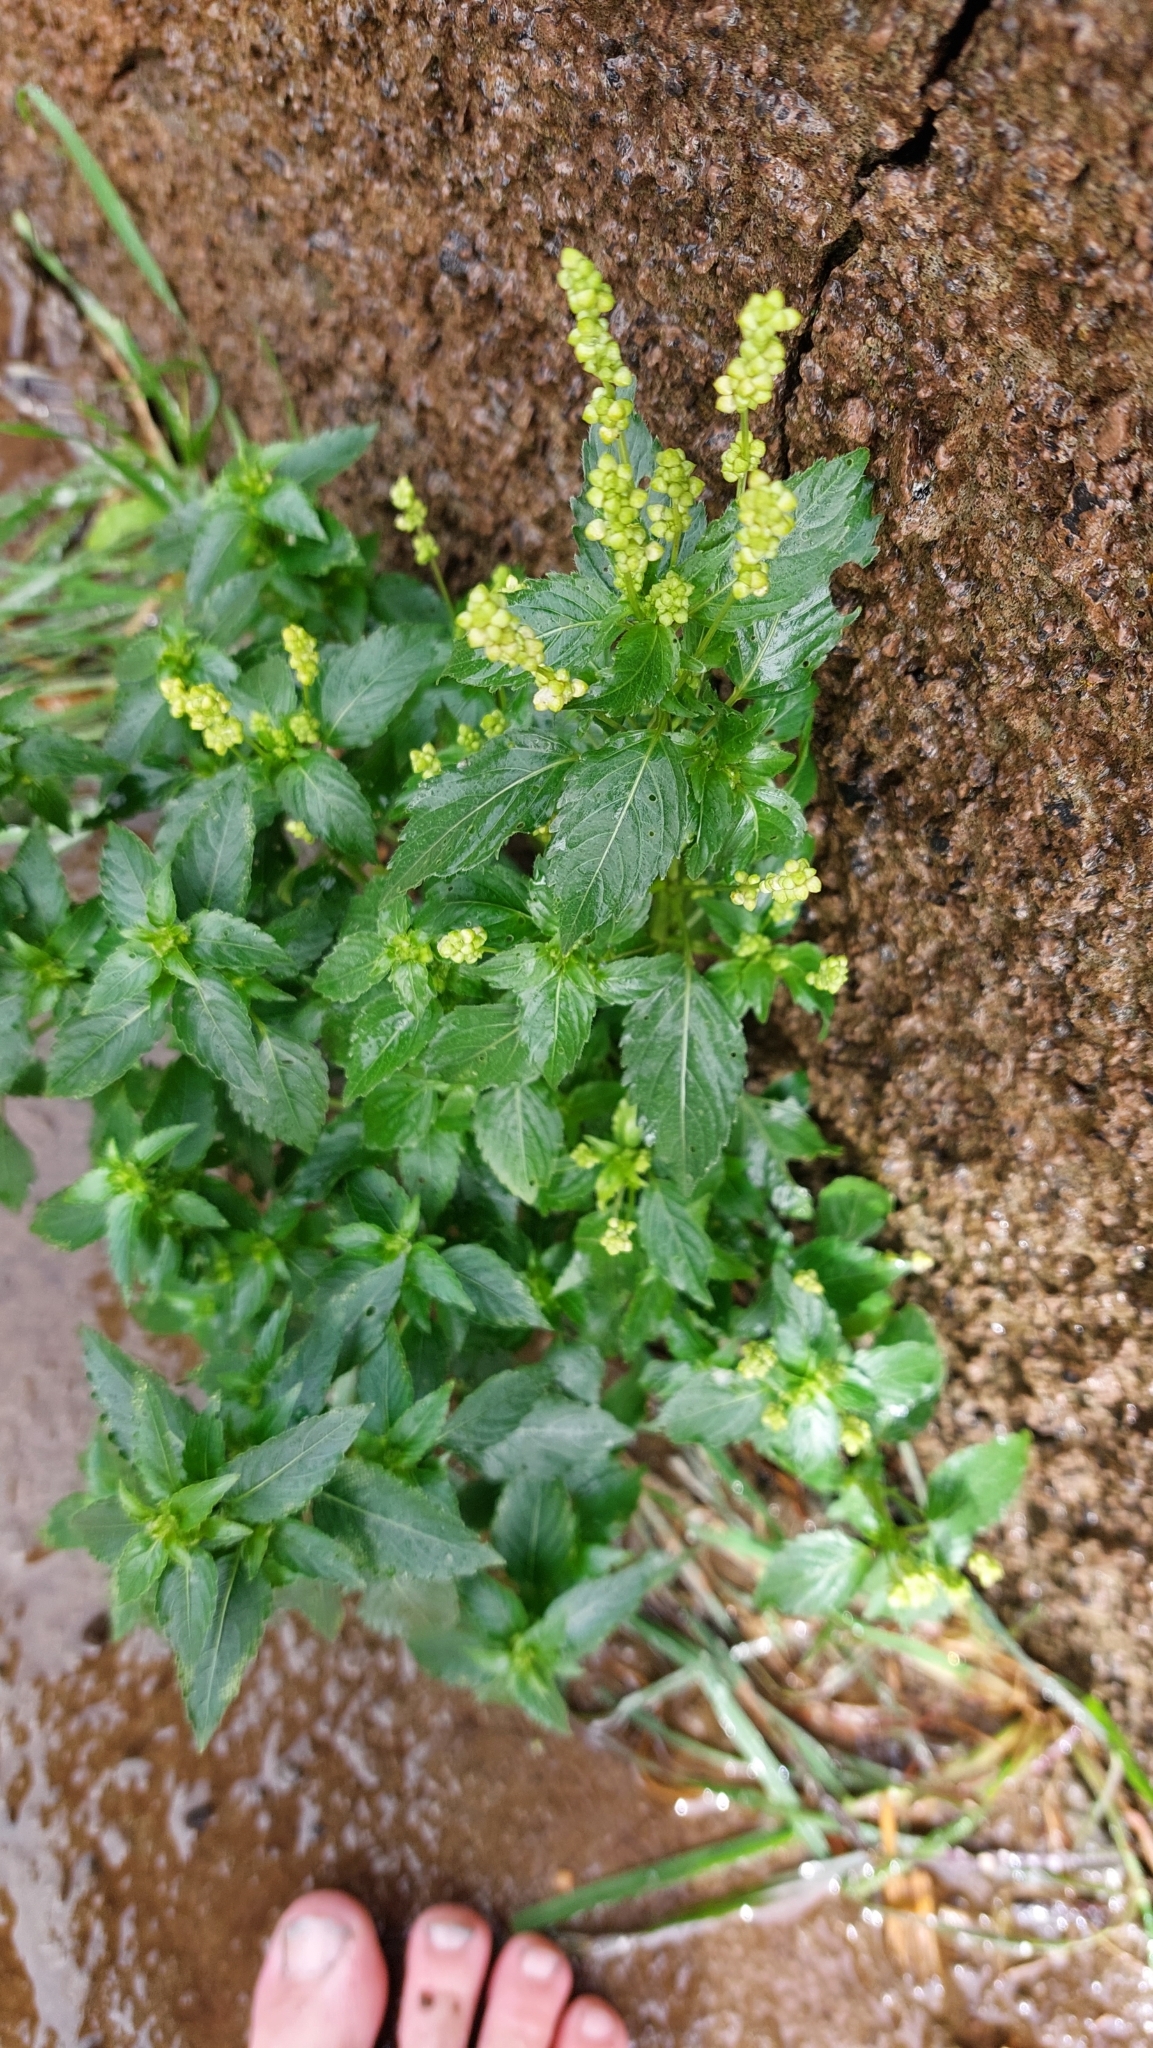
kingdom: Plantae
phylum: Tracheophyta
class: Magnoliopsida
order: Malpighiales
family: Euphorbiaceae
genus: Mercurialis
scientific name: Mercurialis annua
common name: Annual mercury
